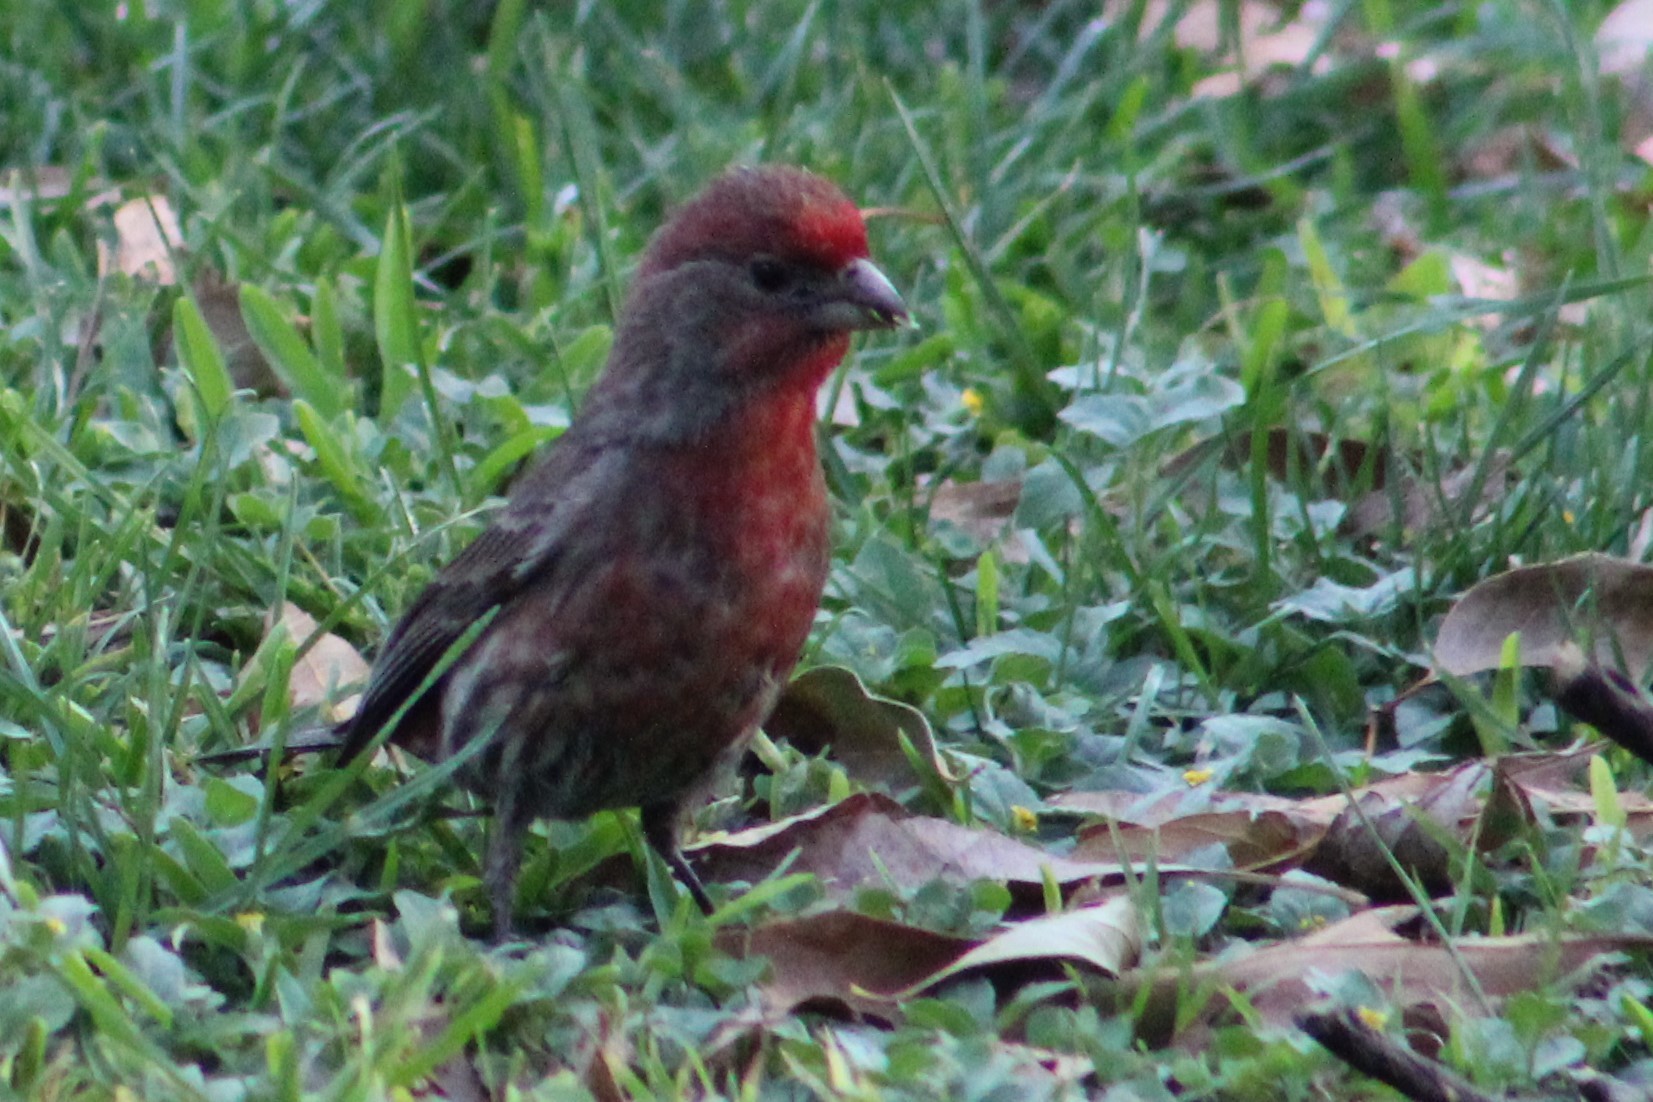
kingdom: Animalia
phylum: Chordata
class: Aves
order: Passeriformes
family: Fringillidae
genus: Haemorhous
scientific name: Haemorhous mexicanus
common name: House finch
